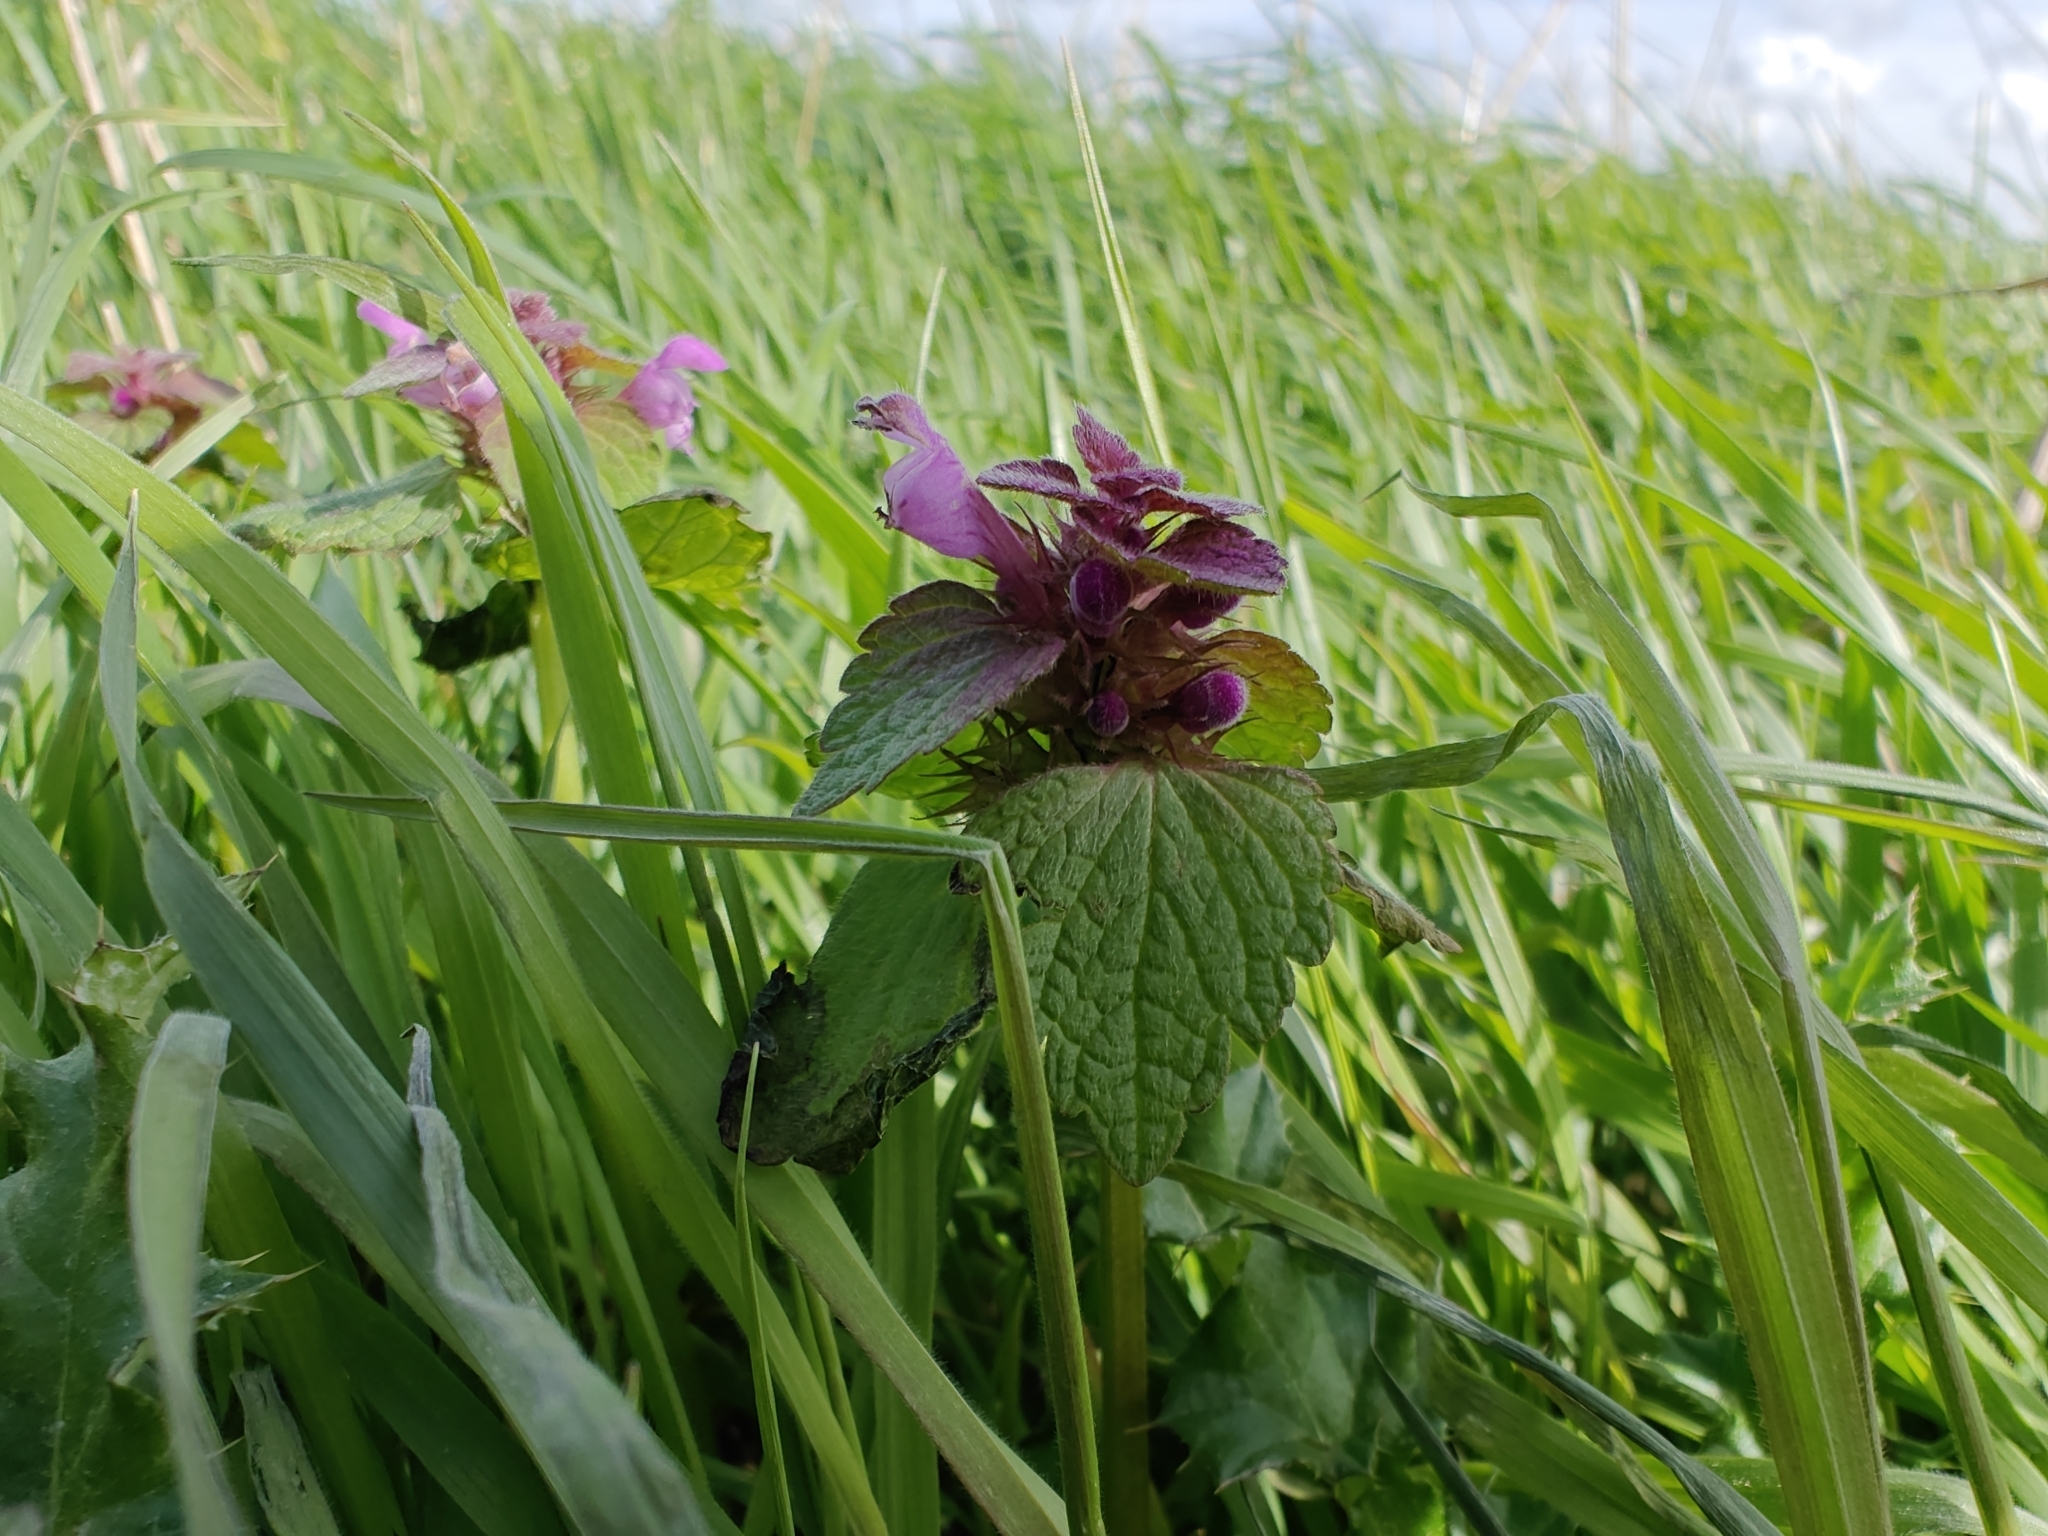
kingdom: Plantae
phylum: Tracheophyta
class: Magnoliopsida
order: Lamiales
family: Lamiaceae
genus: Lamium
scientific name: Lamium purpureum
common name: Red dead-nettle
